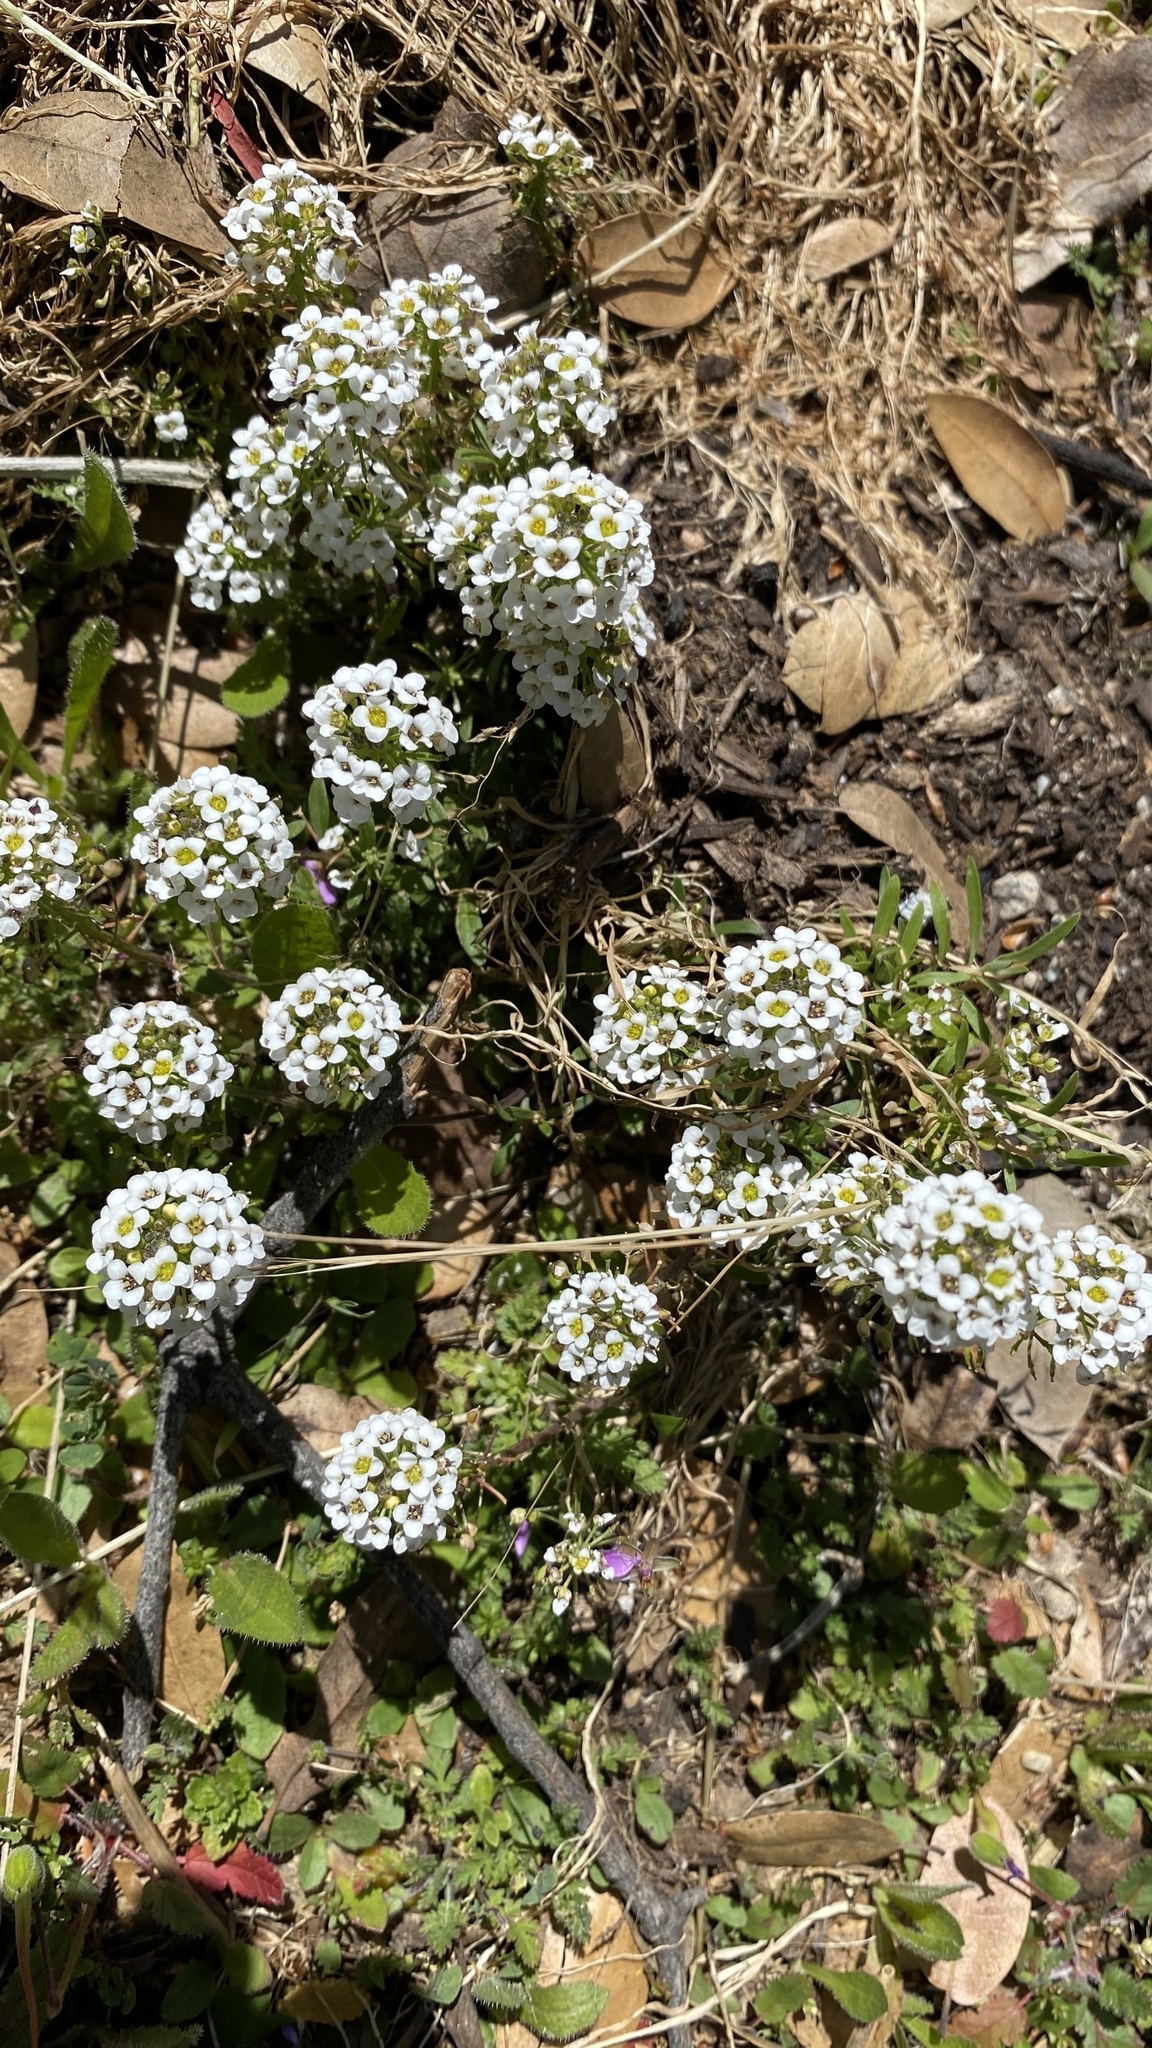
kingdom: Plantae
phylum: Tracheophyta
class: Magnoliopsida
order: Brassicales
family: Brassicaceae
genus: Lobularia
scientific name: Lobularia maritima
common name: Sweet alison
